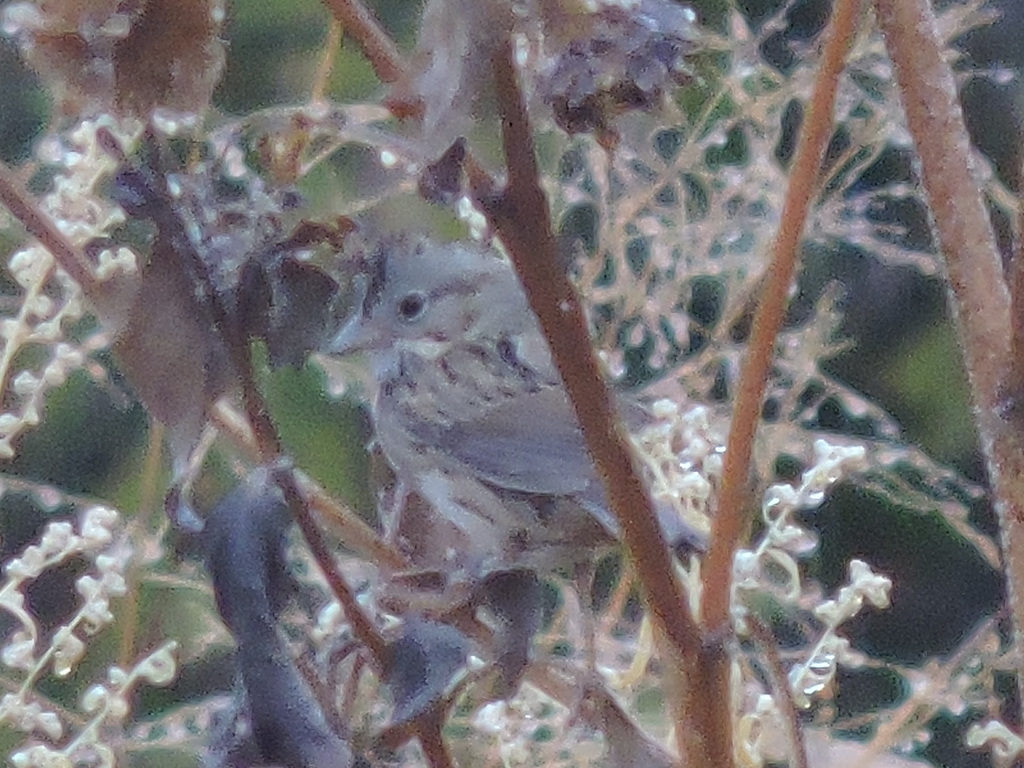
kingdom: Animalia
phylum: Chordata
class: Aves
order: Passeriformes
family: Passerellidae
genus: Melospiza
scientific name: Melospiza lincolnii
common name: Lincoln's sparrow
